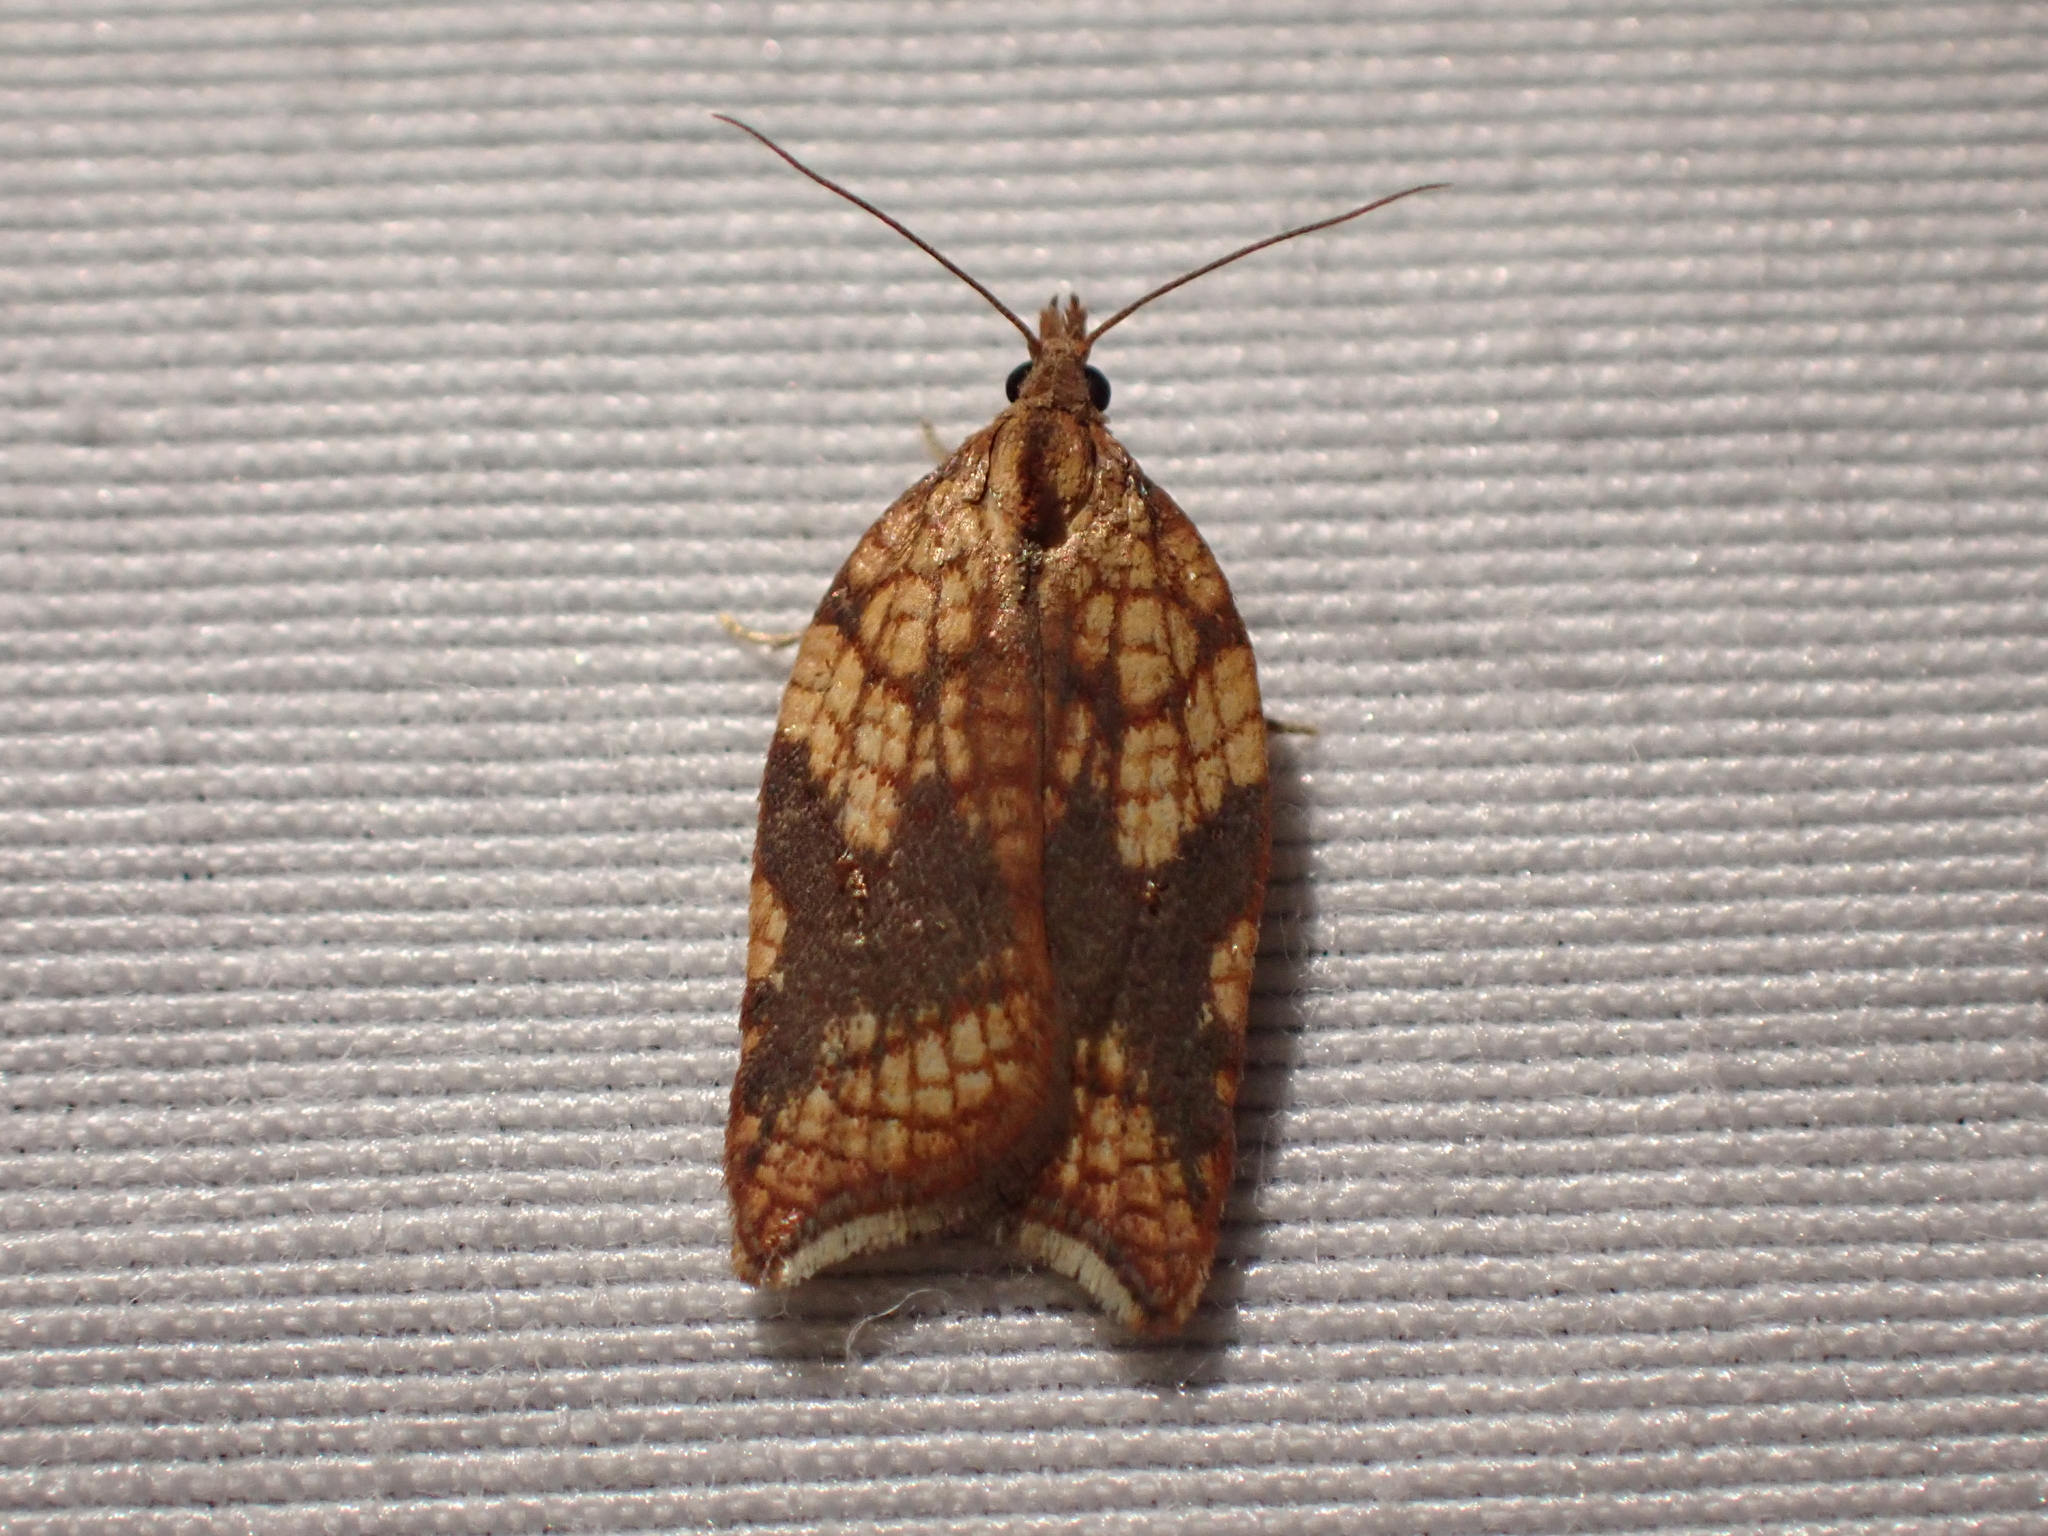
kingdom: Animalia
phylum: Arthropoda
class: Insecta
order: Lepidoptera
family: Tortricidae
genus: Acleris
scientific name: Acleris rhombana
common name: Tortricid moth
